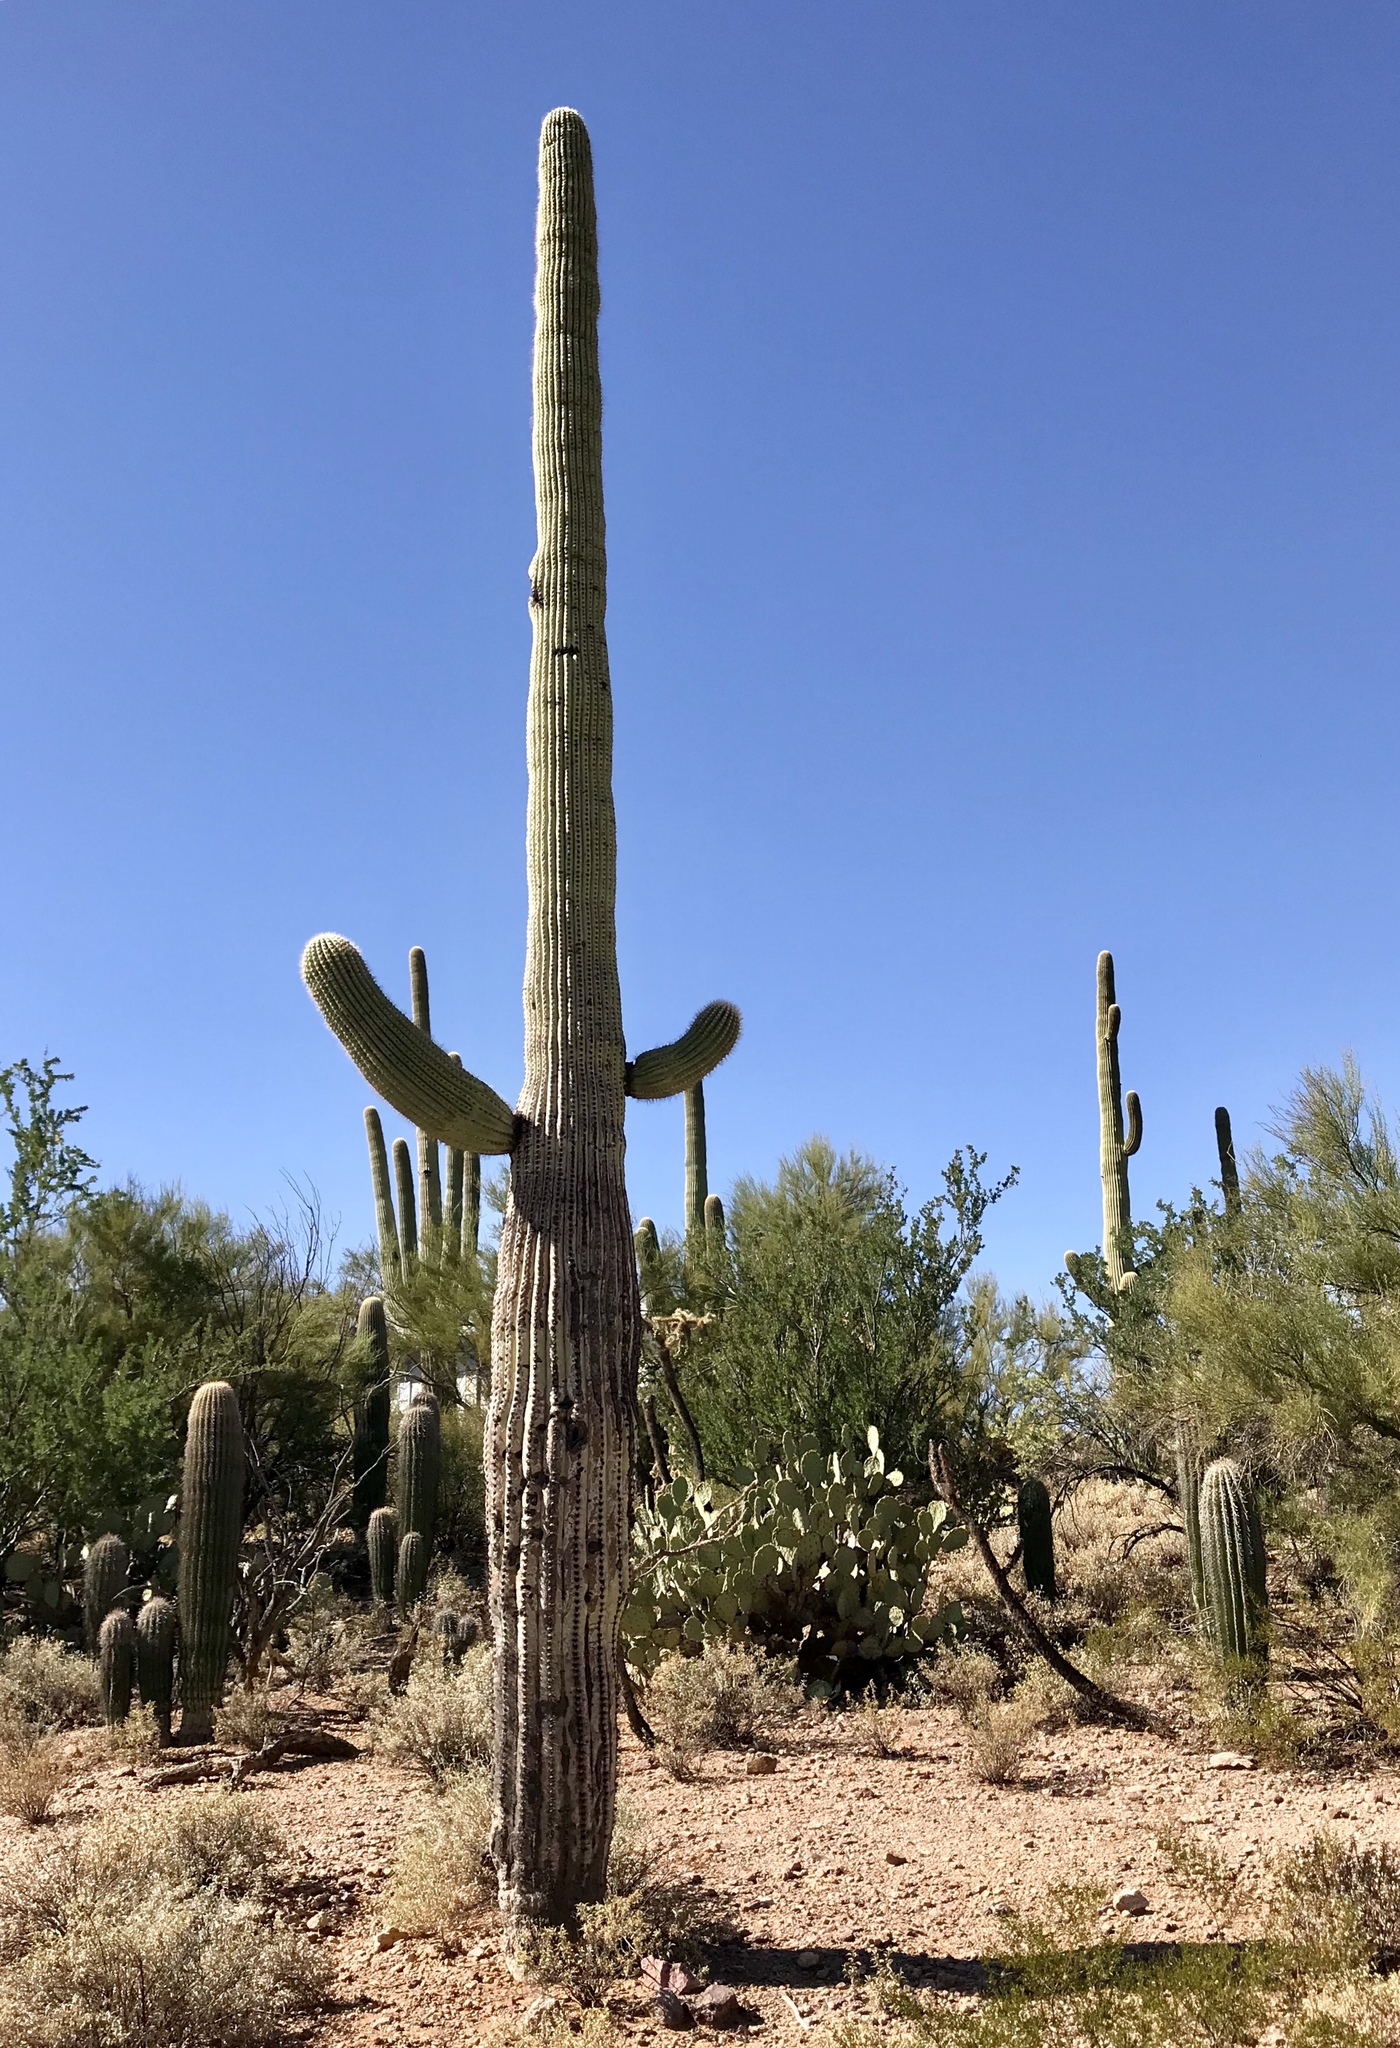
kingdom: Plantae
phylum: Tracheophyta
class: Magnoliopsida
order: Caryophyllales
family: Cactaceae
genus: Carnegiea
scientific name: Carnegiea gigantea
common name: Saguaro
